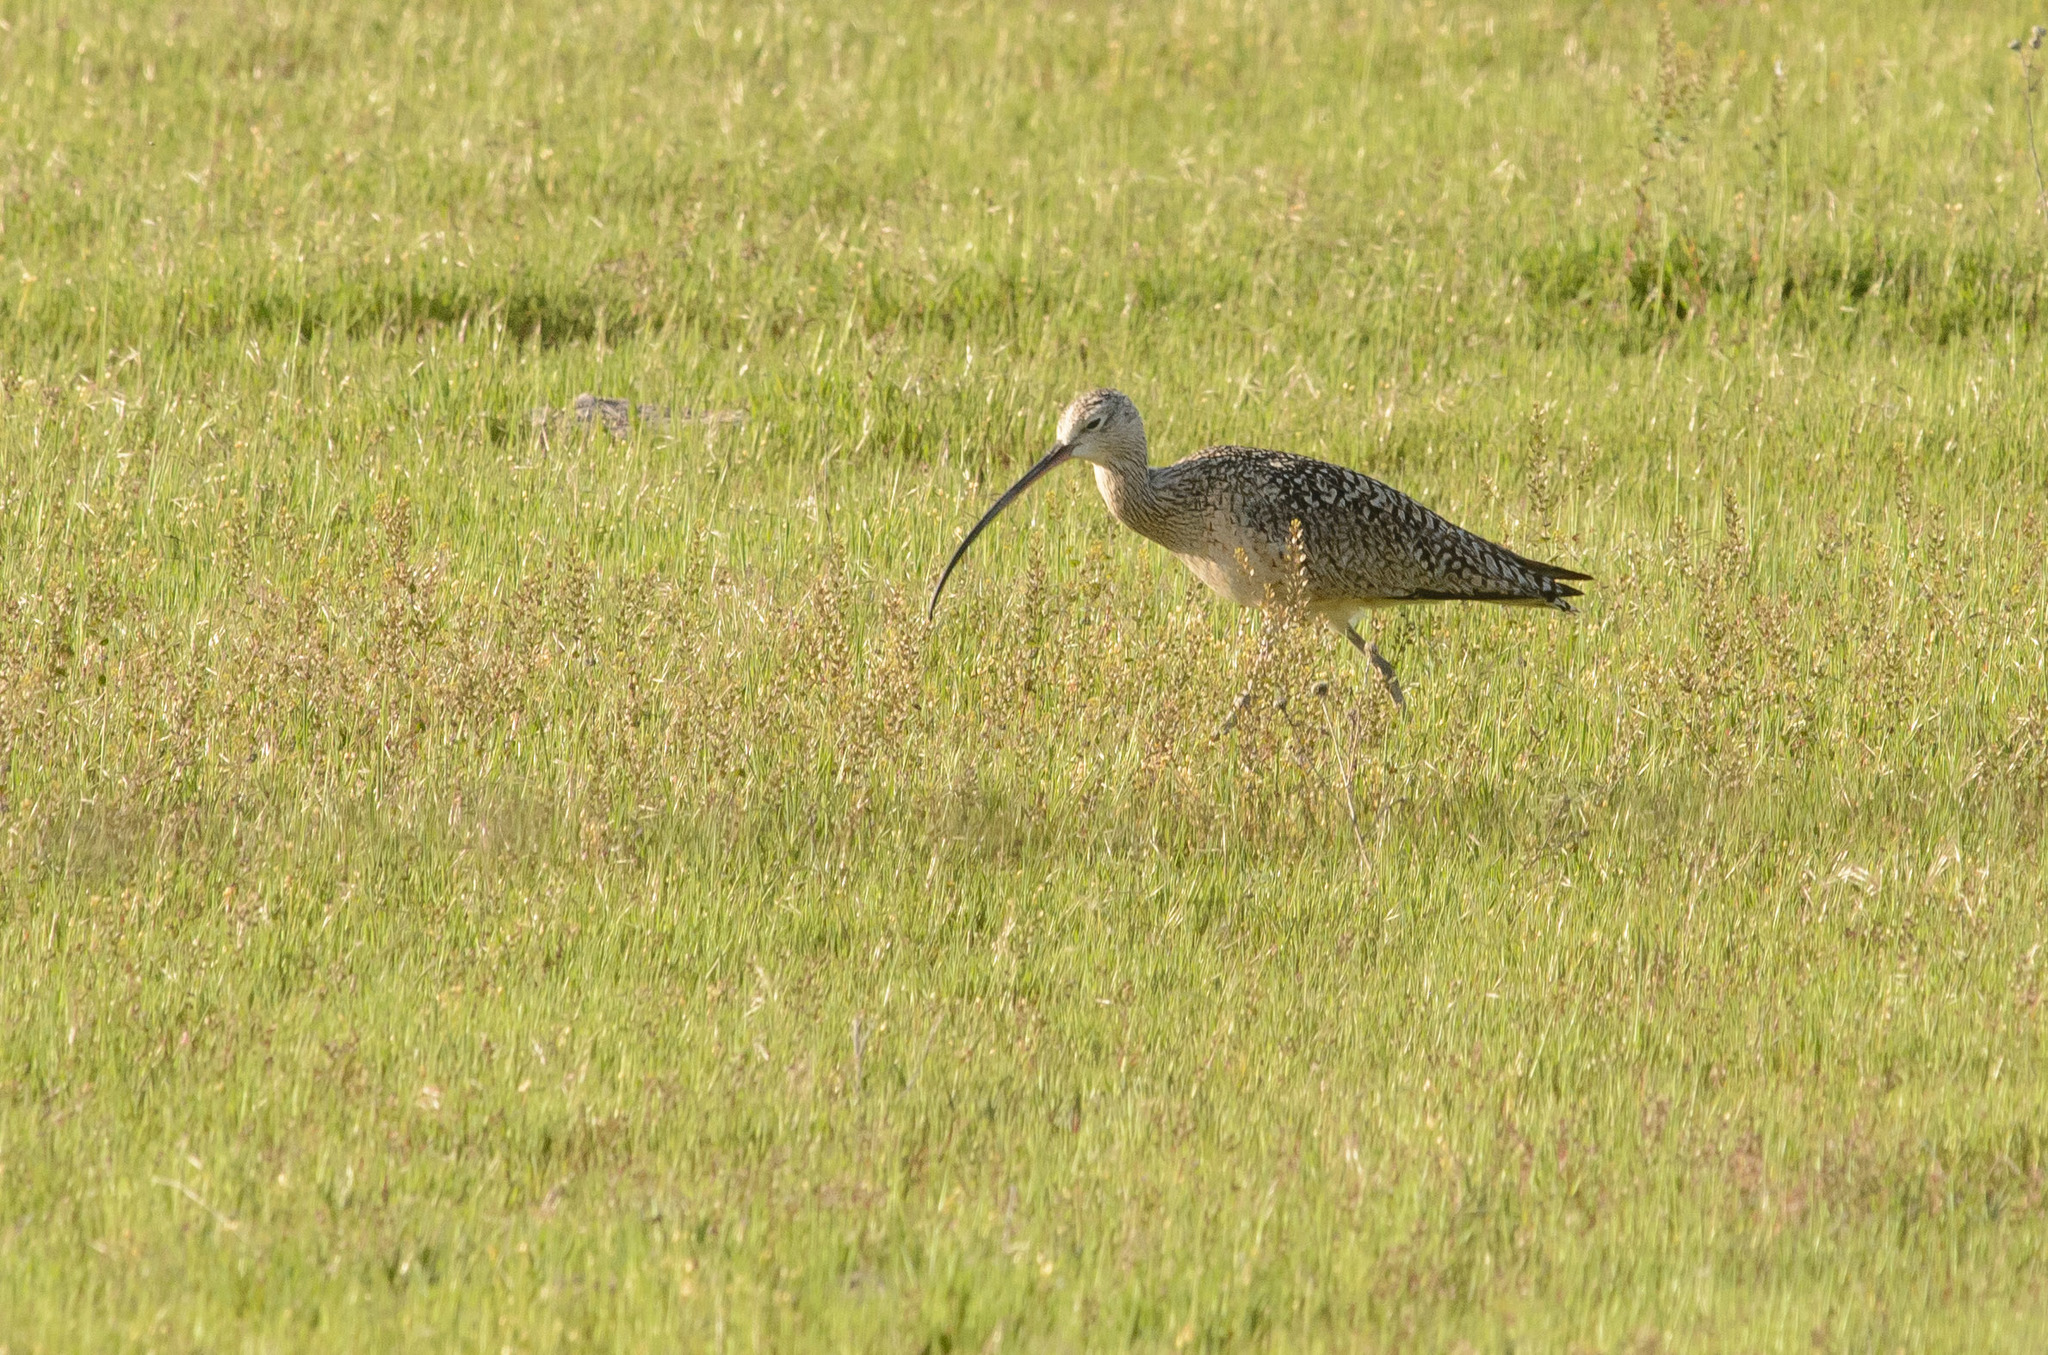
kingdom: Animalia
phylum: Chordata
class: Aves
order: Charadriiformes
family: Scolopacidae
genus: Numenius
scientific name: Numenius americanus
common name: Long-billed curlew
